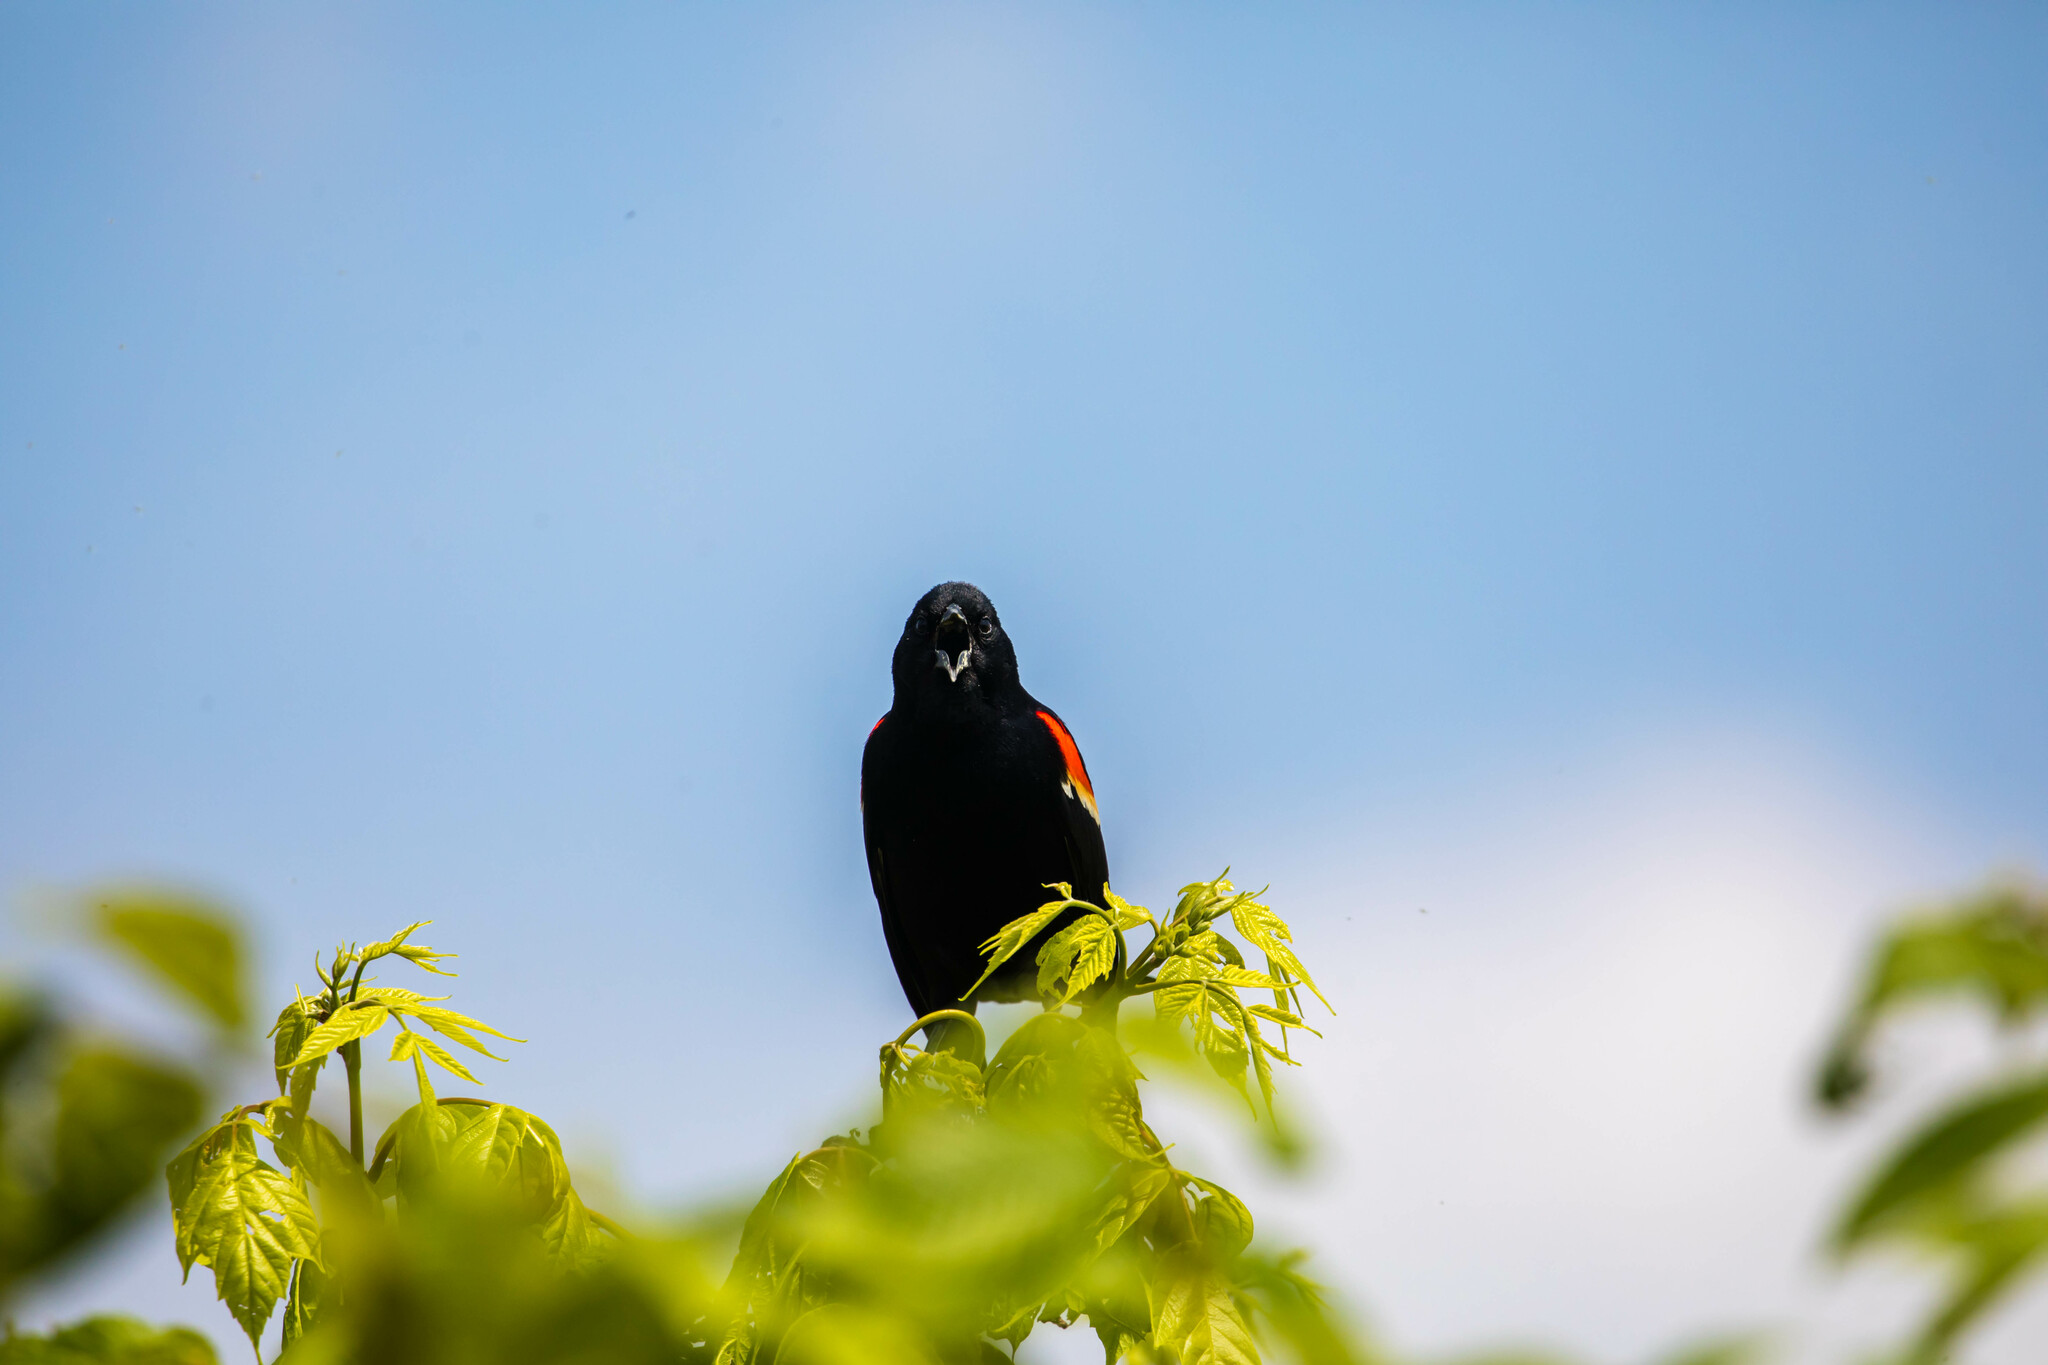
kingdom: Animalia
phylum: Chordata
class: Aves
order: Passeriformes
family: Icteridae
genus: Agelaius
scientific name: Agelaius phoeniceus
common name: Red-winged blackbird
